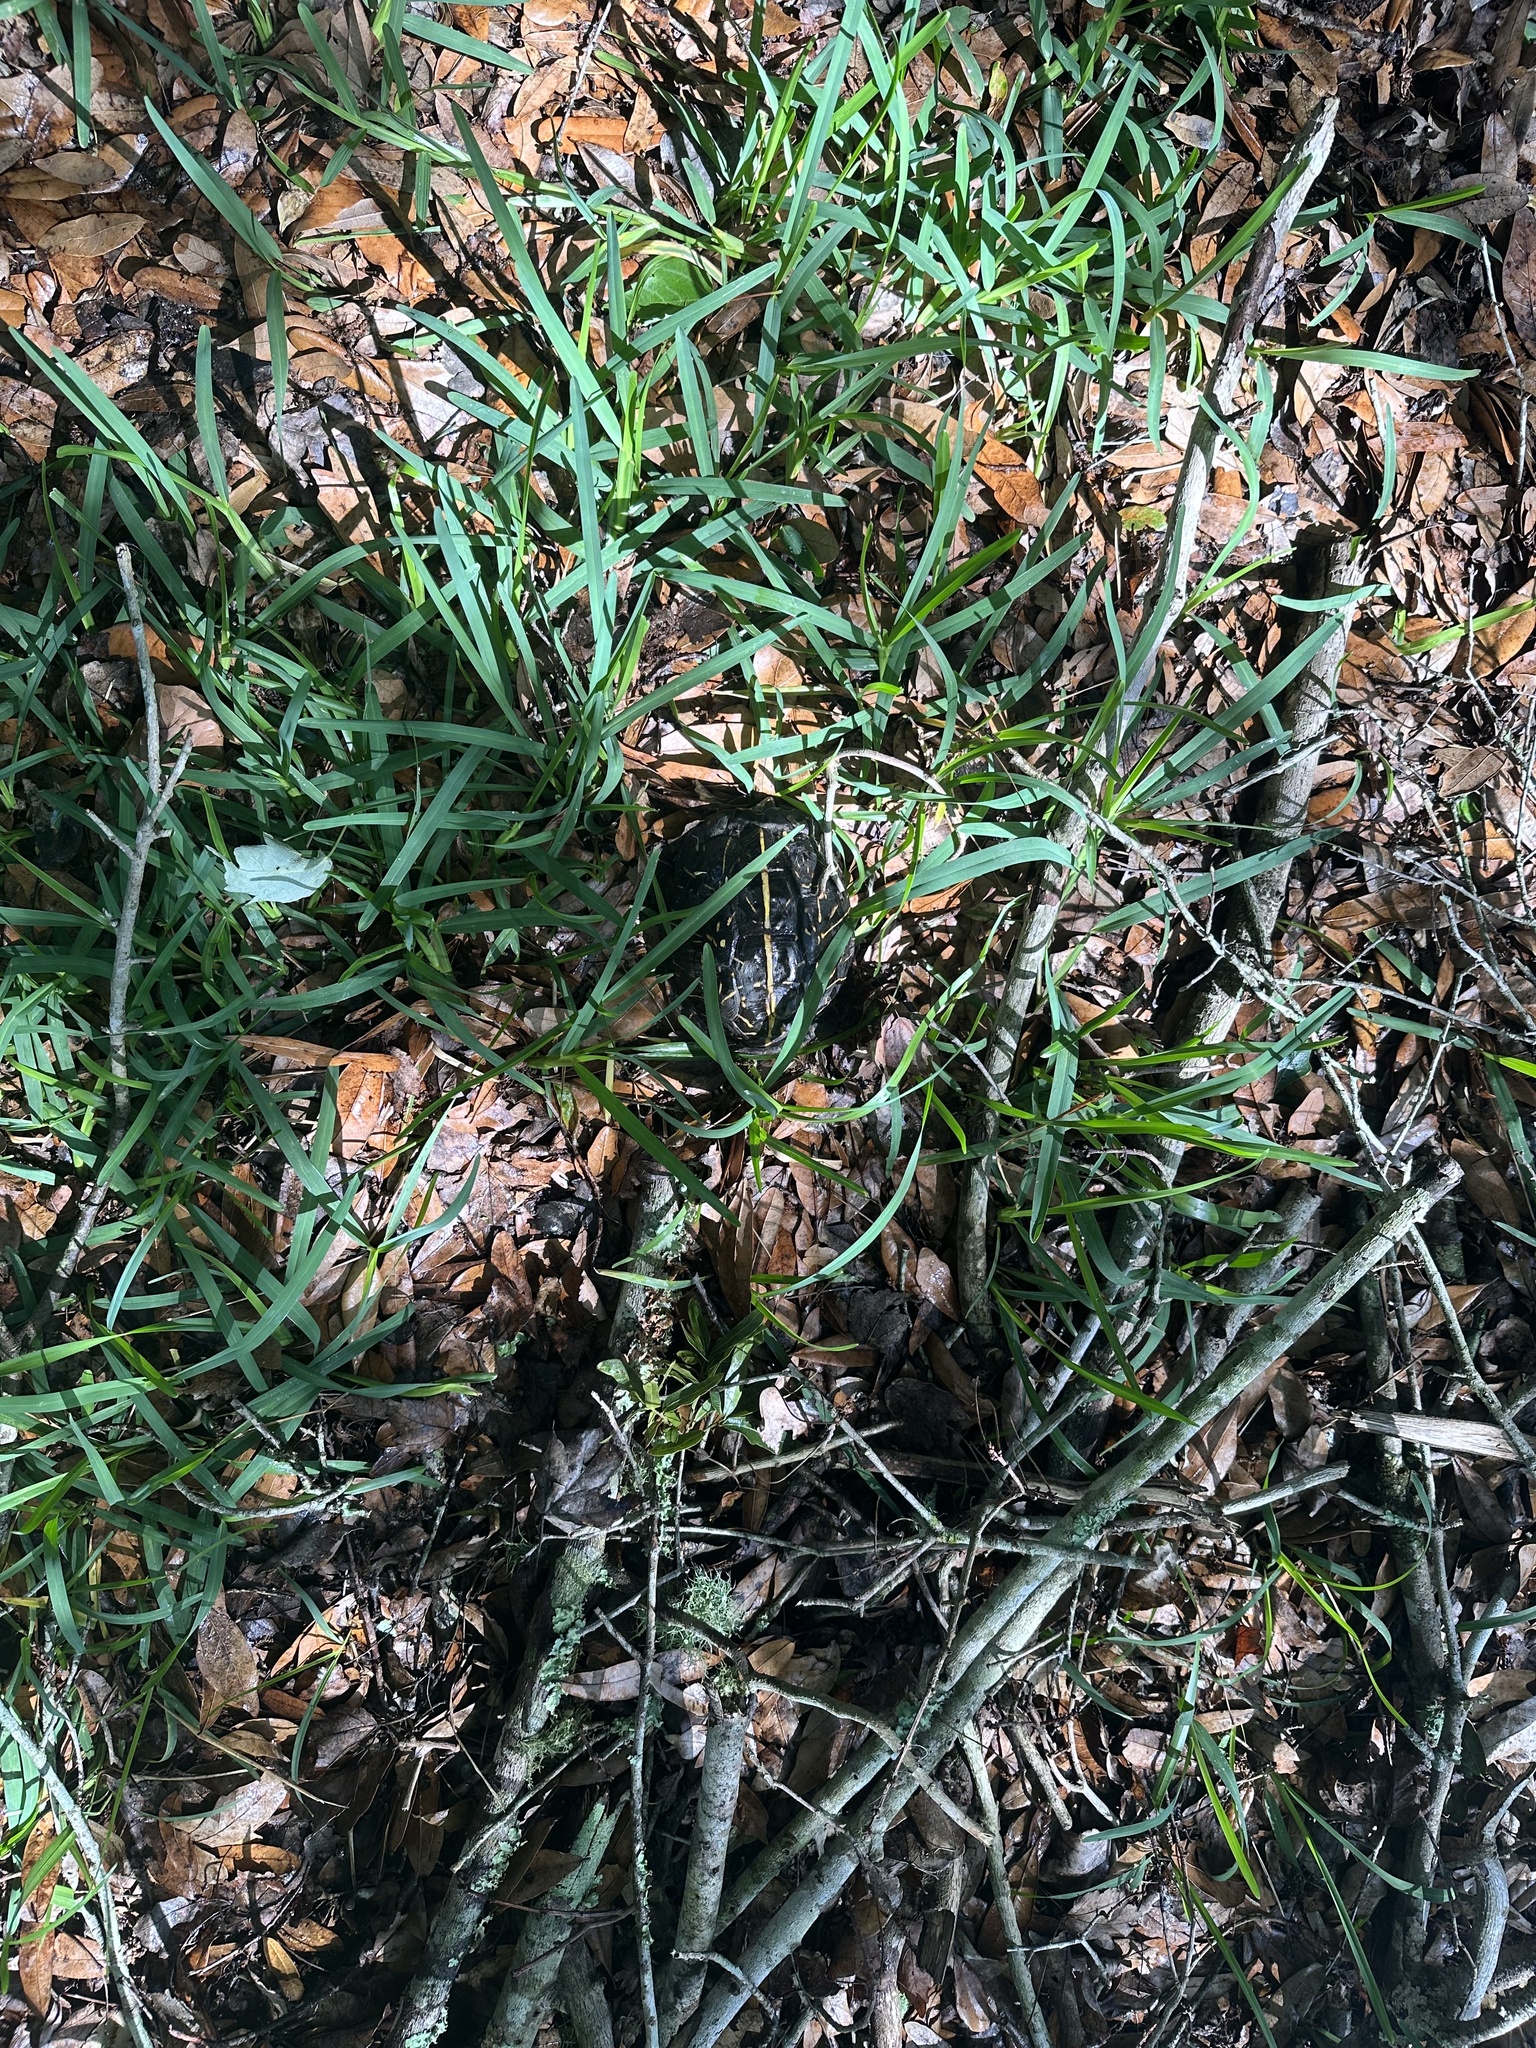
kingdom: Animalia
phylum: Chordata
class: Testudines
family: Emydidae
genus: Terrapene
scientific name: Terrapene carolina
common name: Common box turtle
